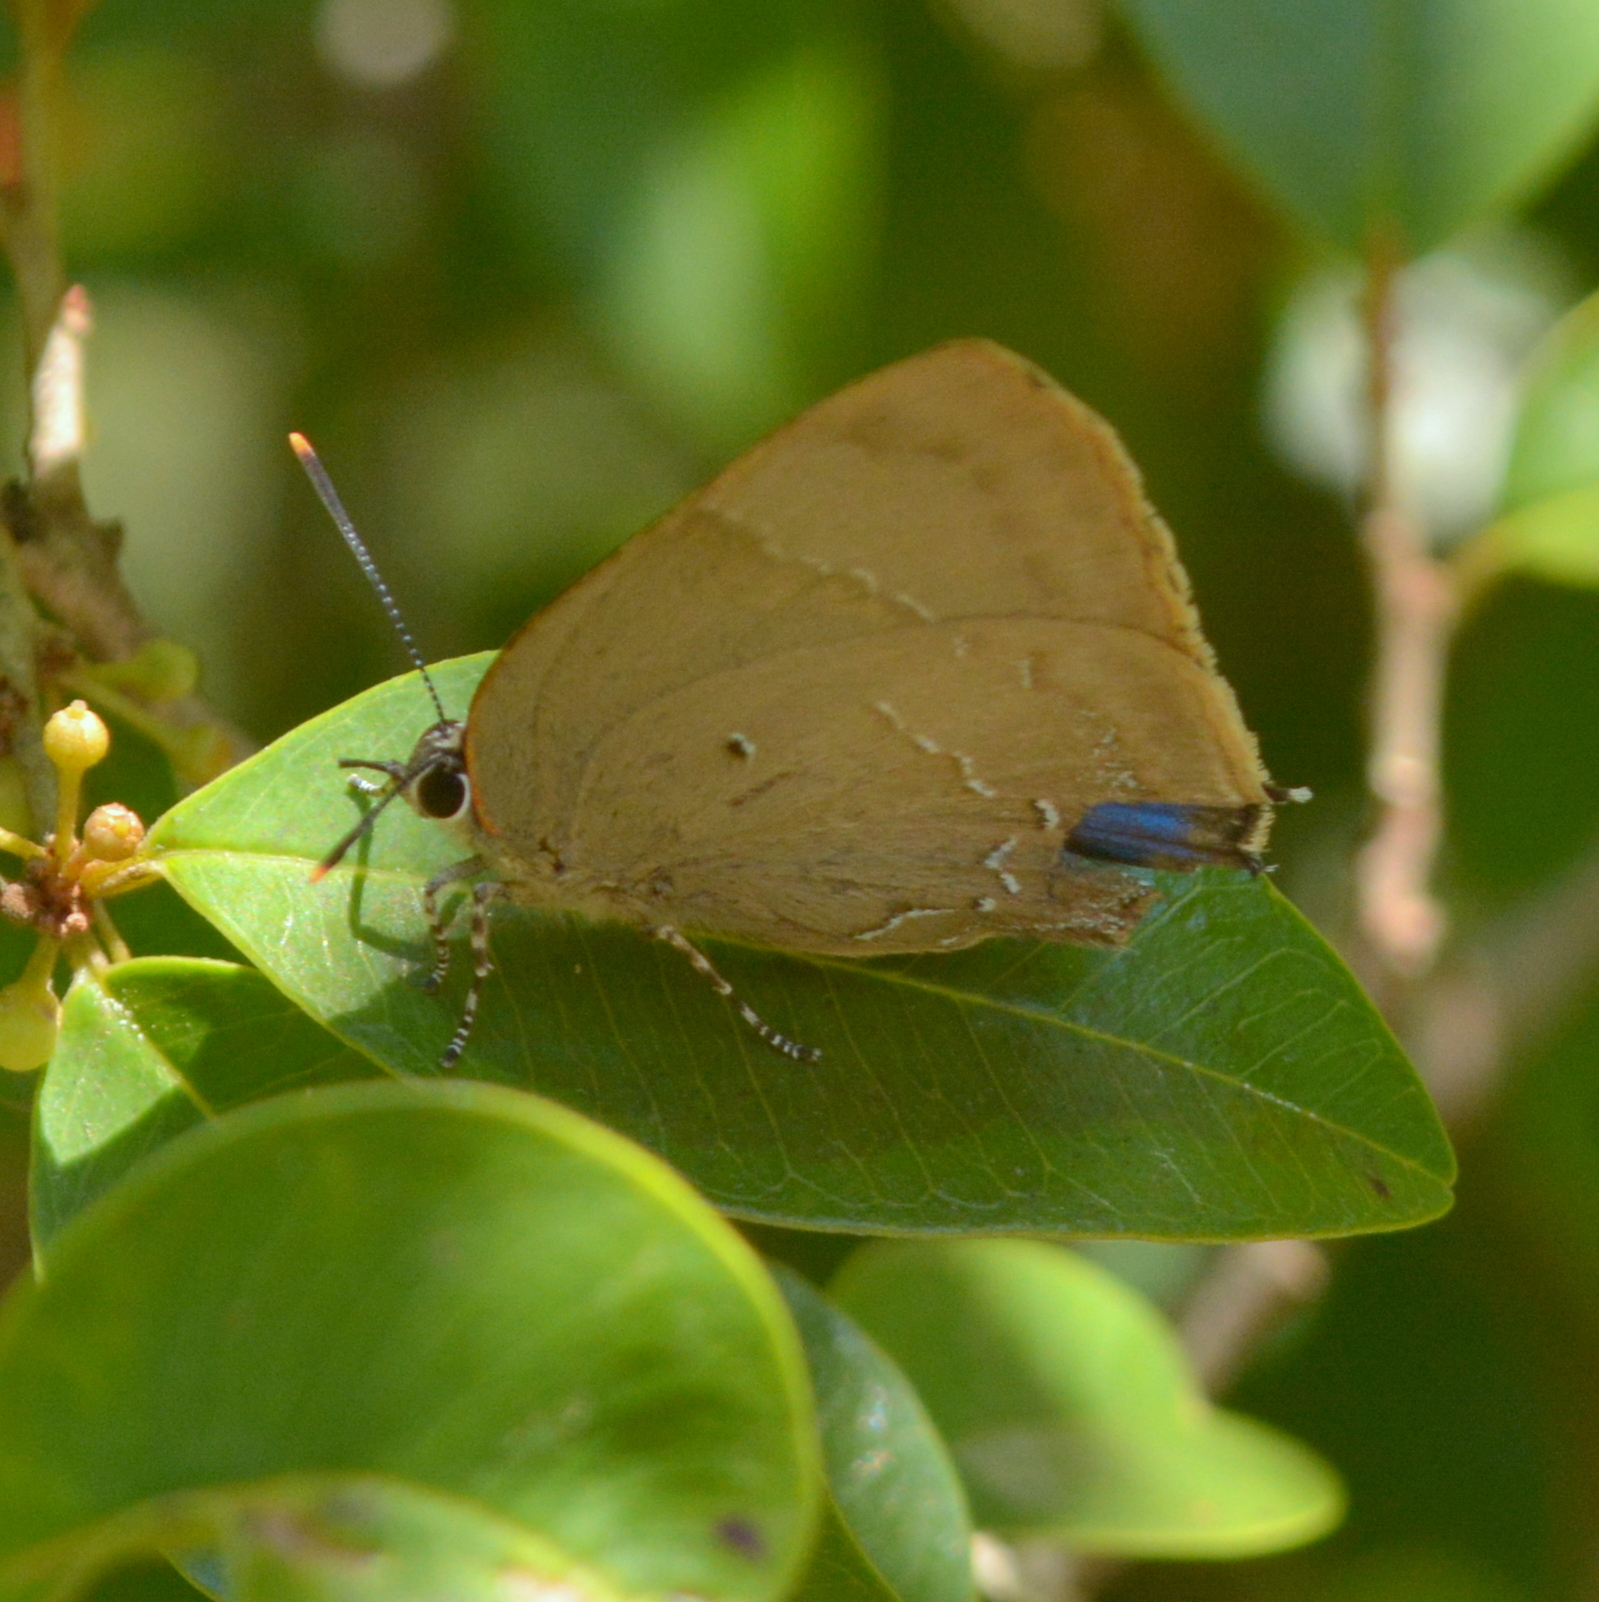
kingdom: Animalia
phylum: Arthropoda
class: Insecta
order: Lepidoptera
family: Lycaenidae
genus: Parrhasius
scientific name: Parrhasius orgia
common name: Variable hairstreak
